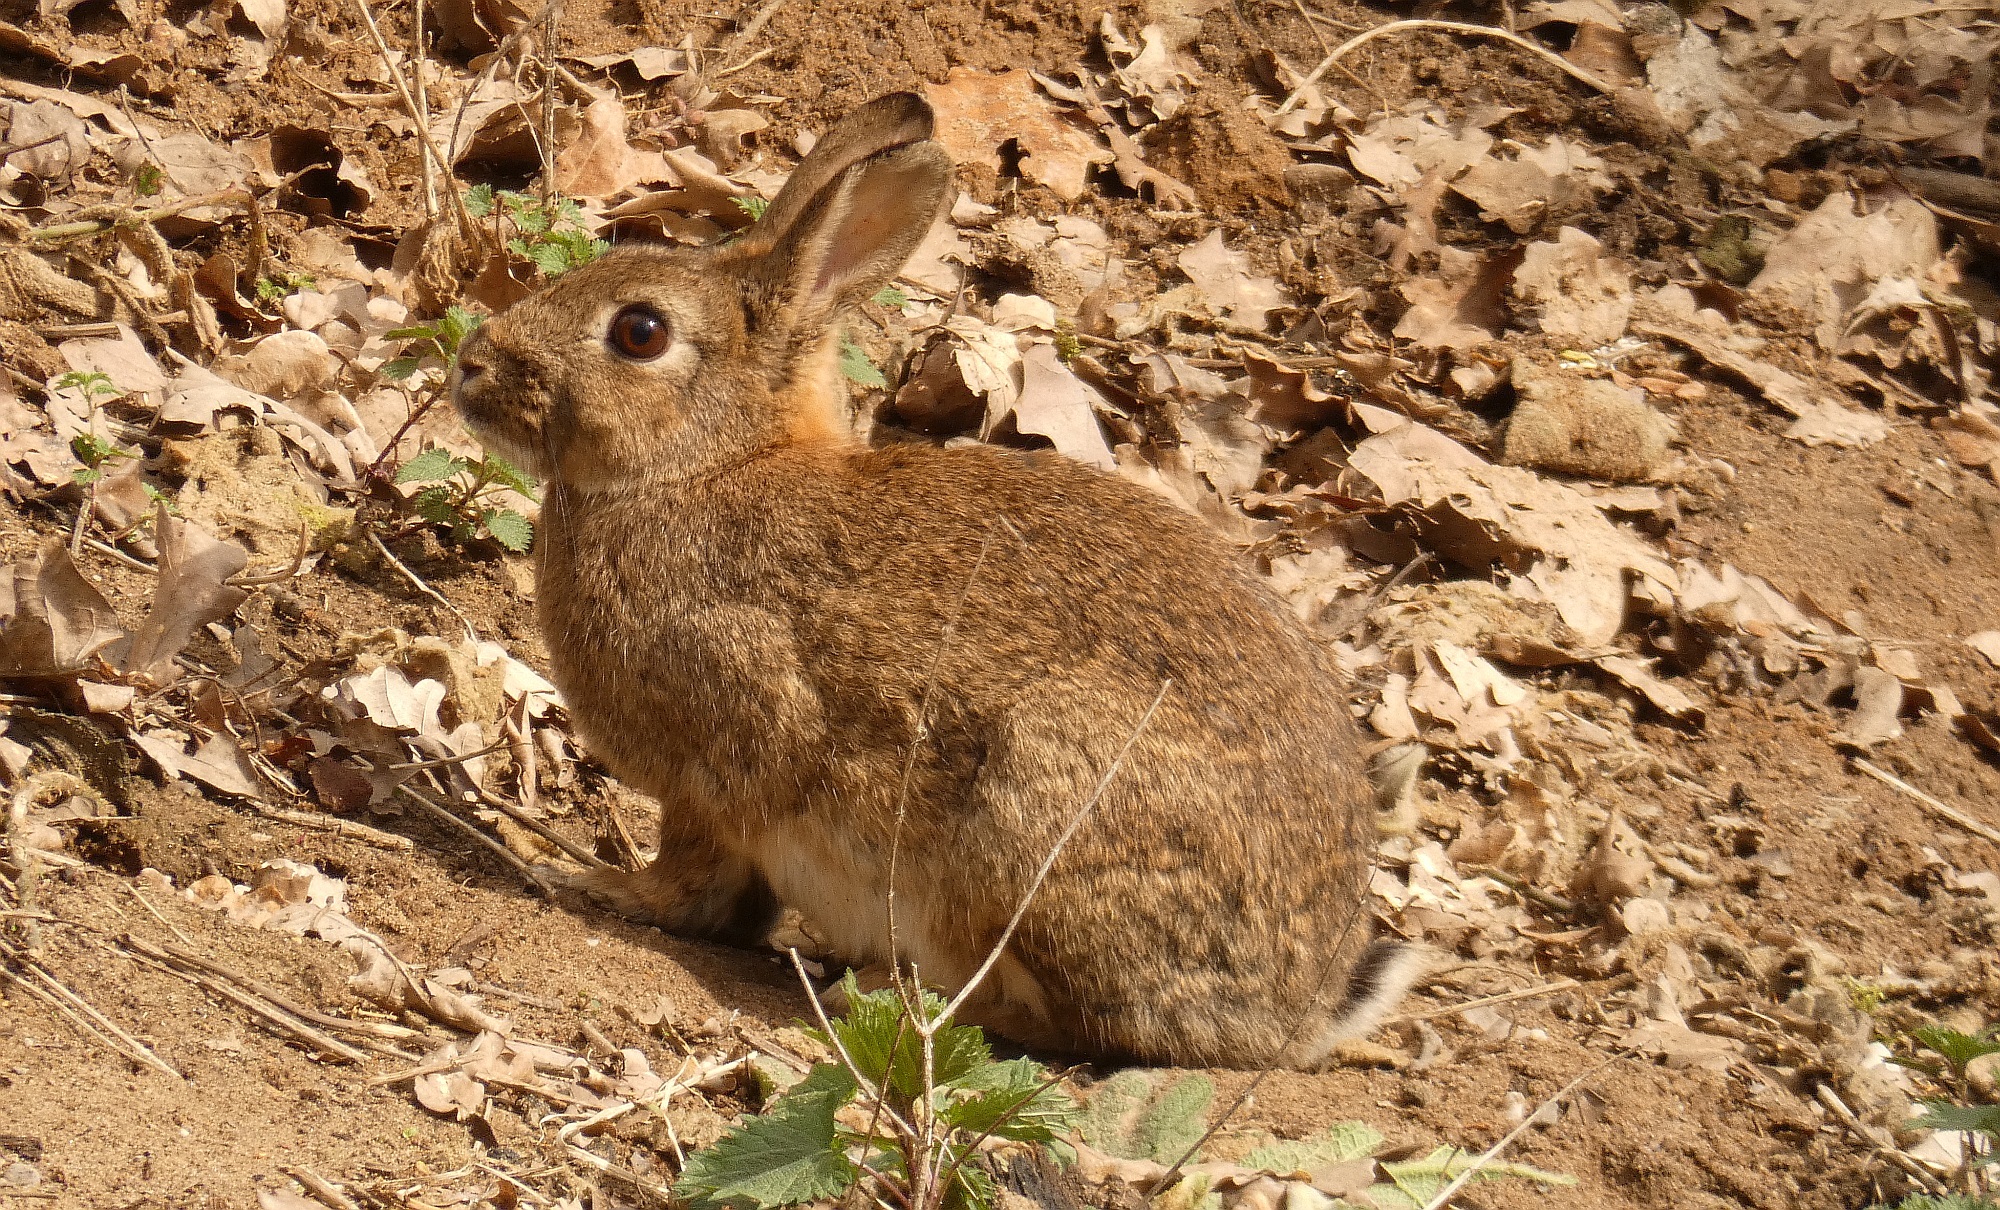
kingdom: Animalia
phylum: Chordata
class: Mammalia
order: Lagomorpha
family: Leporidae
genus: Oryctolagus
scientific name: Oryctolagus cuniculus
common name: European rabbit
